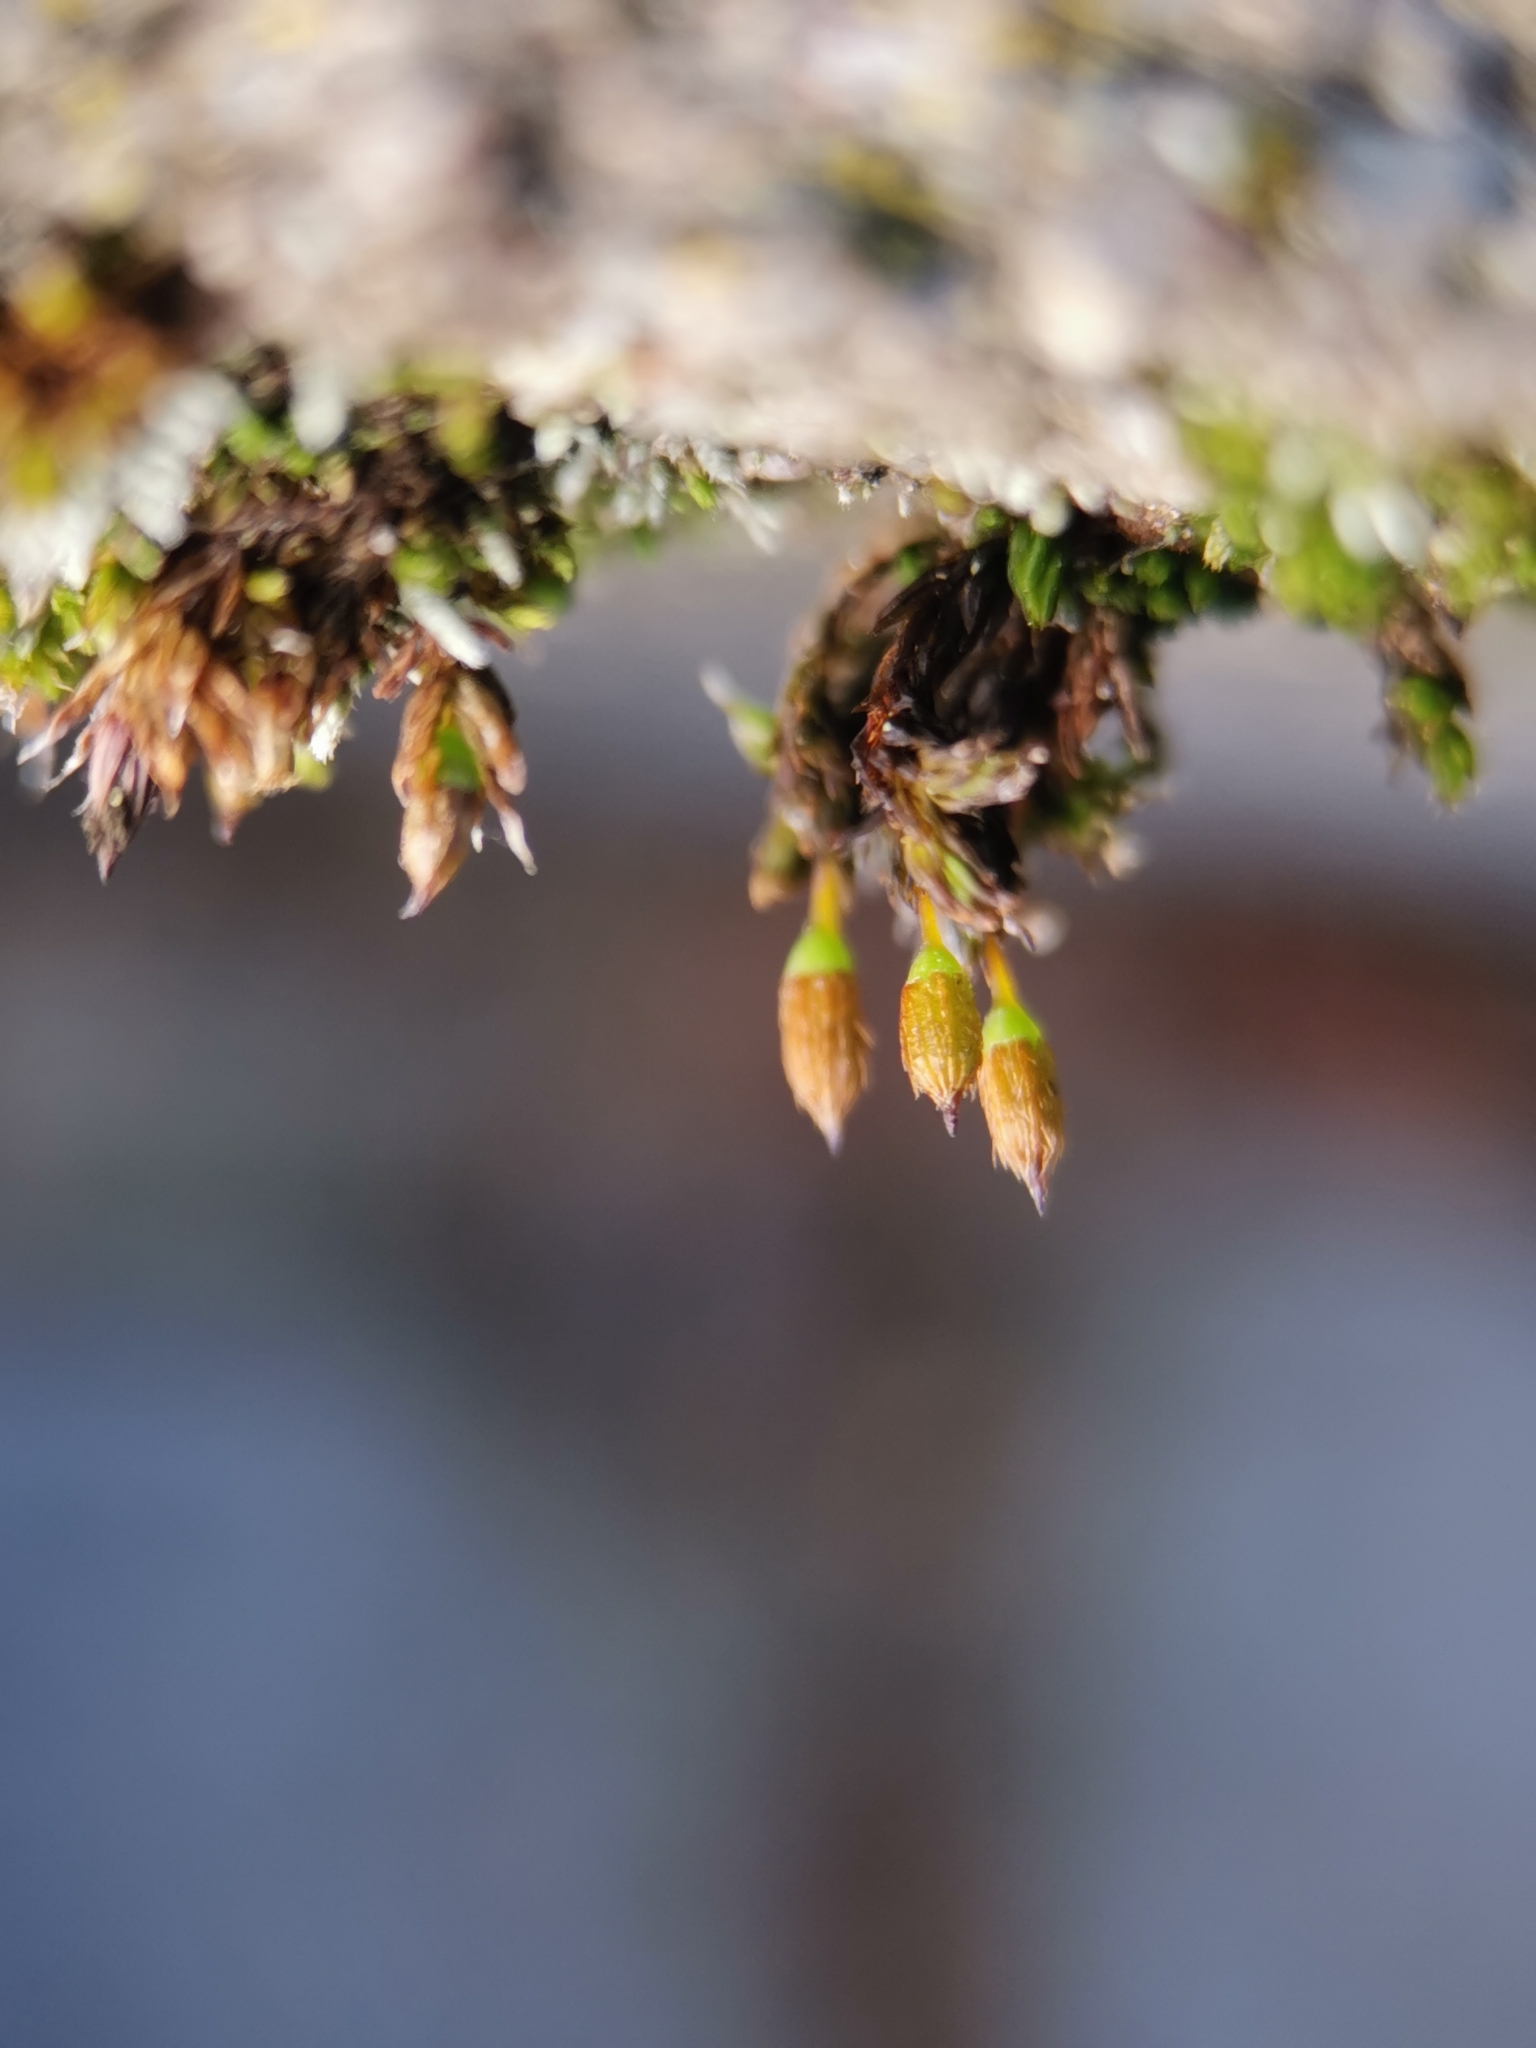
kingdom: Plantae
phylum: Bryophyta
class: Bryopsida
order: Orthotrichales
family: Orthotrichaceae
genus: Orthotrichum
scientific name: Orthotrichum anomalum
